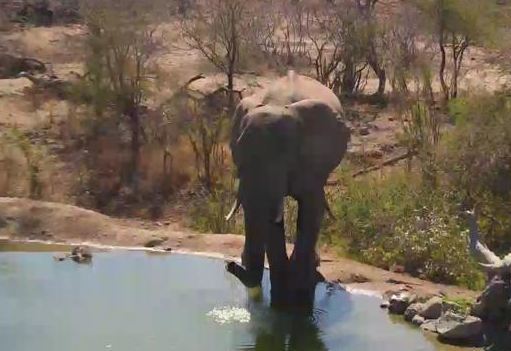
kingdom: Animalia
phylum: Chordata
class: Mammalia
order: Proboscidea
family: Elephantidae
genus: Loxodonta
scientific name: Loxodonta africana
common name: African elephant
